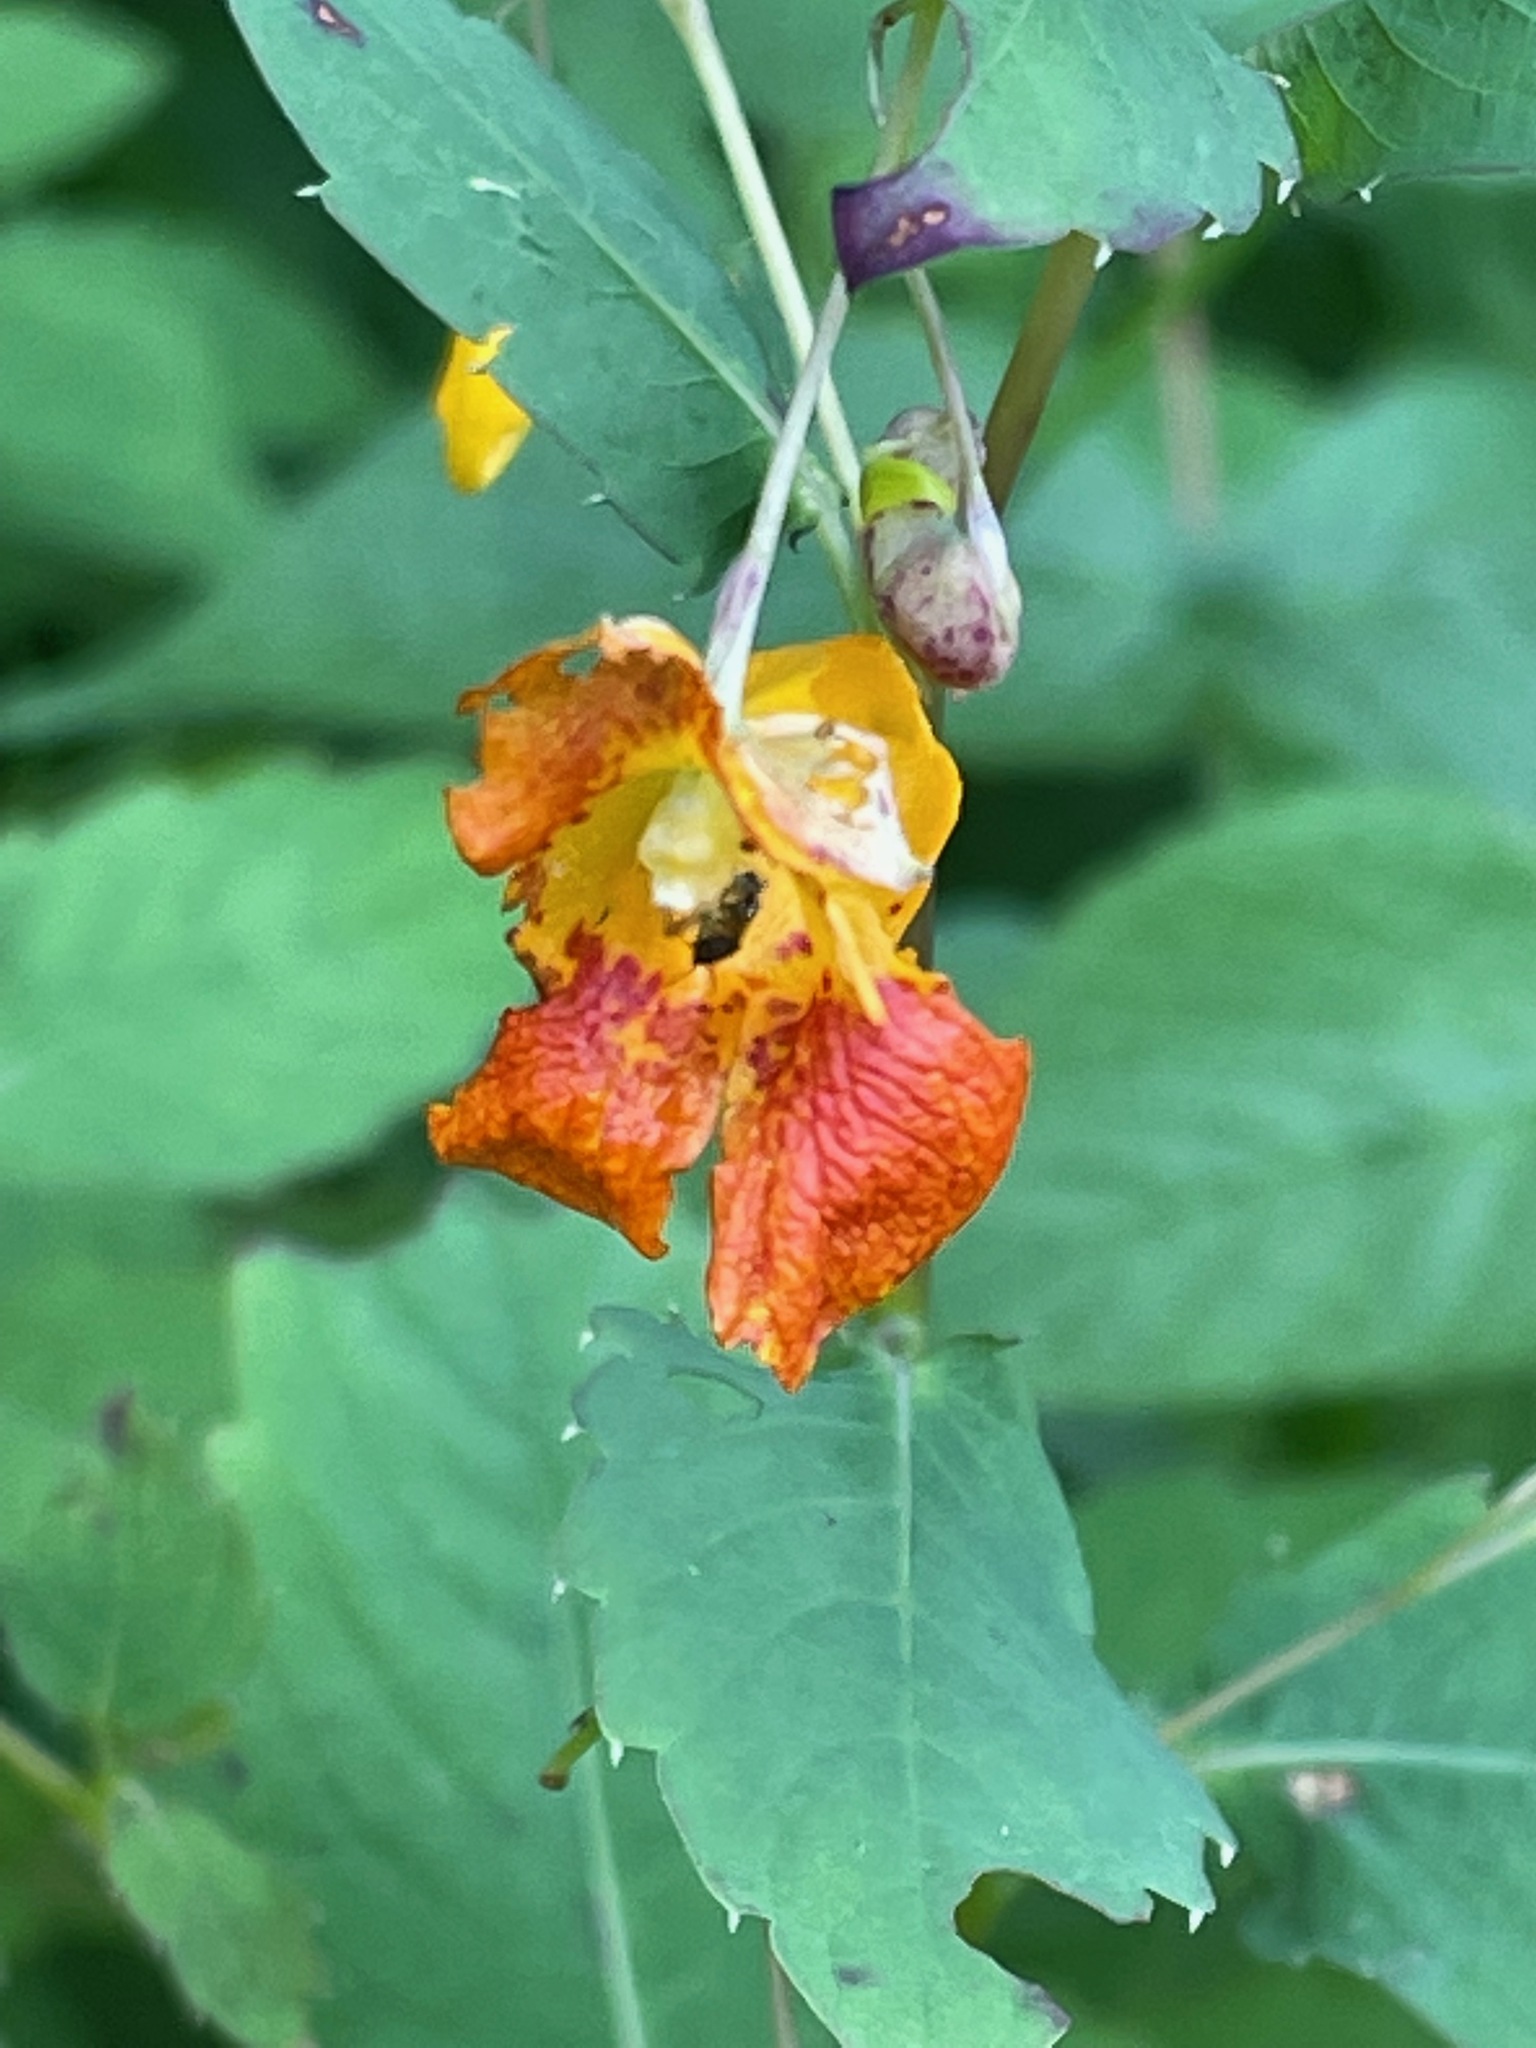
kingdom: Plantae
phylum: Tracheophyta
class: Magnoliopsida
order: Ericales
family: Balsaminaceae
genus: Impatiens
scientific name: Impatiens capensis
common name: Orange balsam
